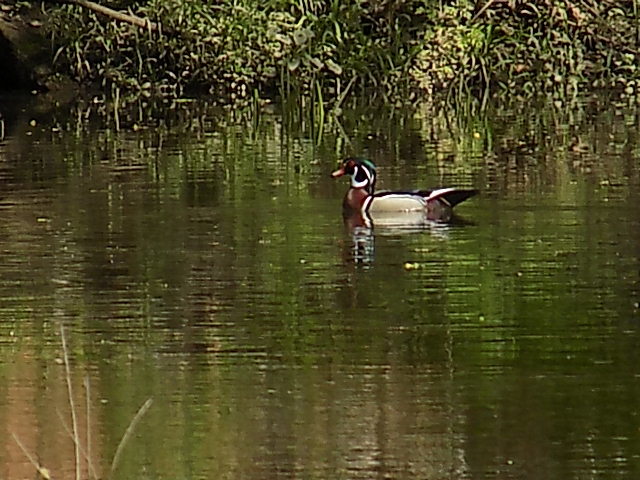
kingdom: Animalia
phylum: Chordata
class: Aves
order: Anseriformes
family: Anatidae
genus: Aix
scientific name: Aix sponsa
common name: Wood duck
